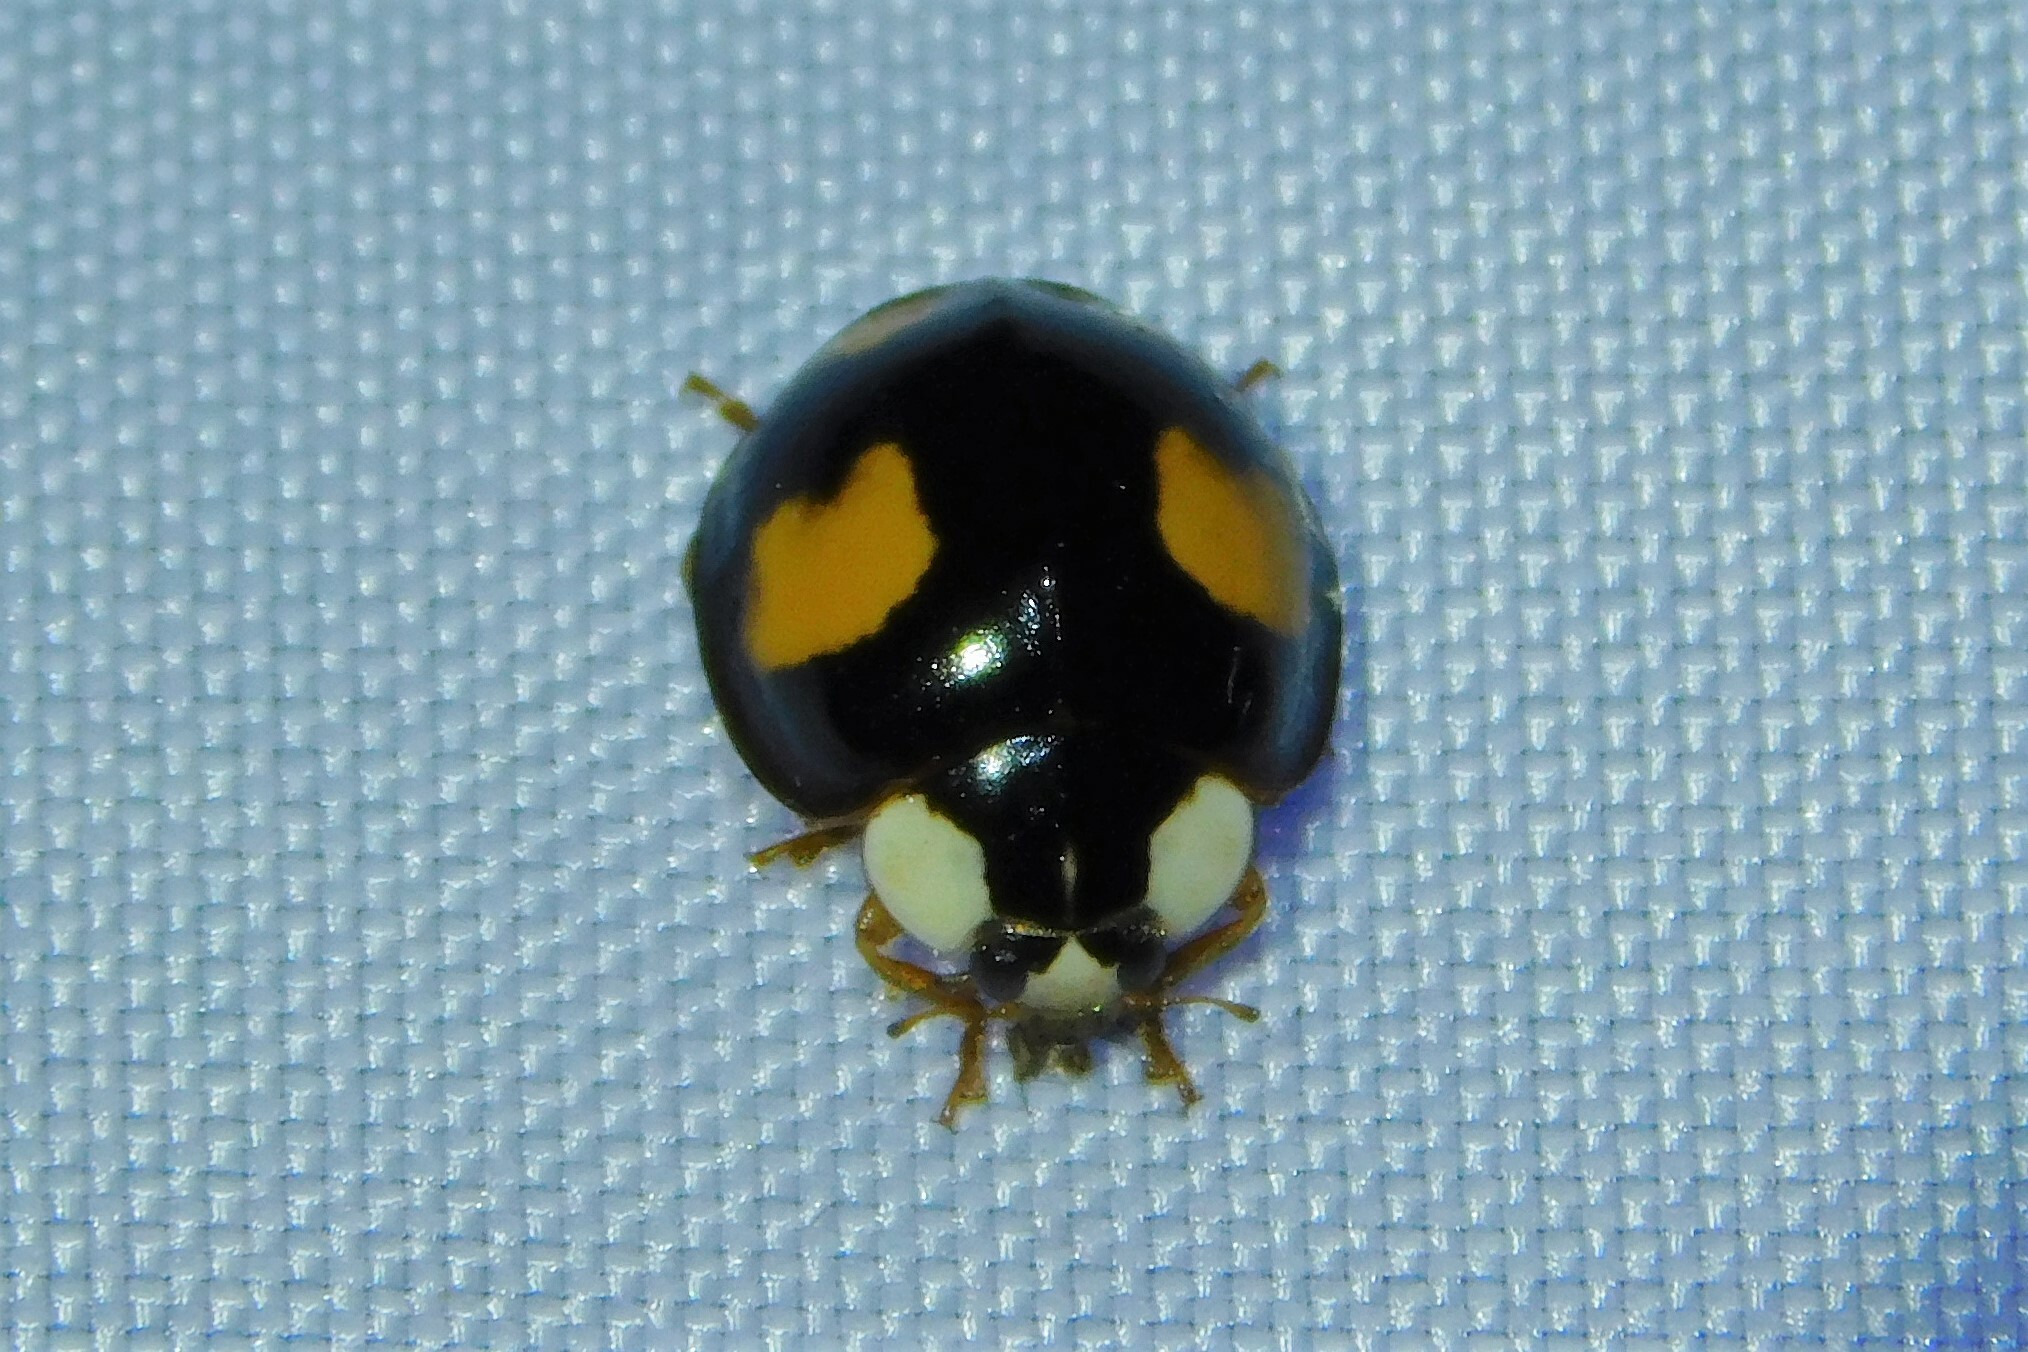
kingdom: Animalia
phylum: Arthropoda
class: Insecta
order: Coleoptera
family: Coccinellidae
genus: Harmonia
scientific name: Harmonia axyridis
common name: Harlequin ladybird
